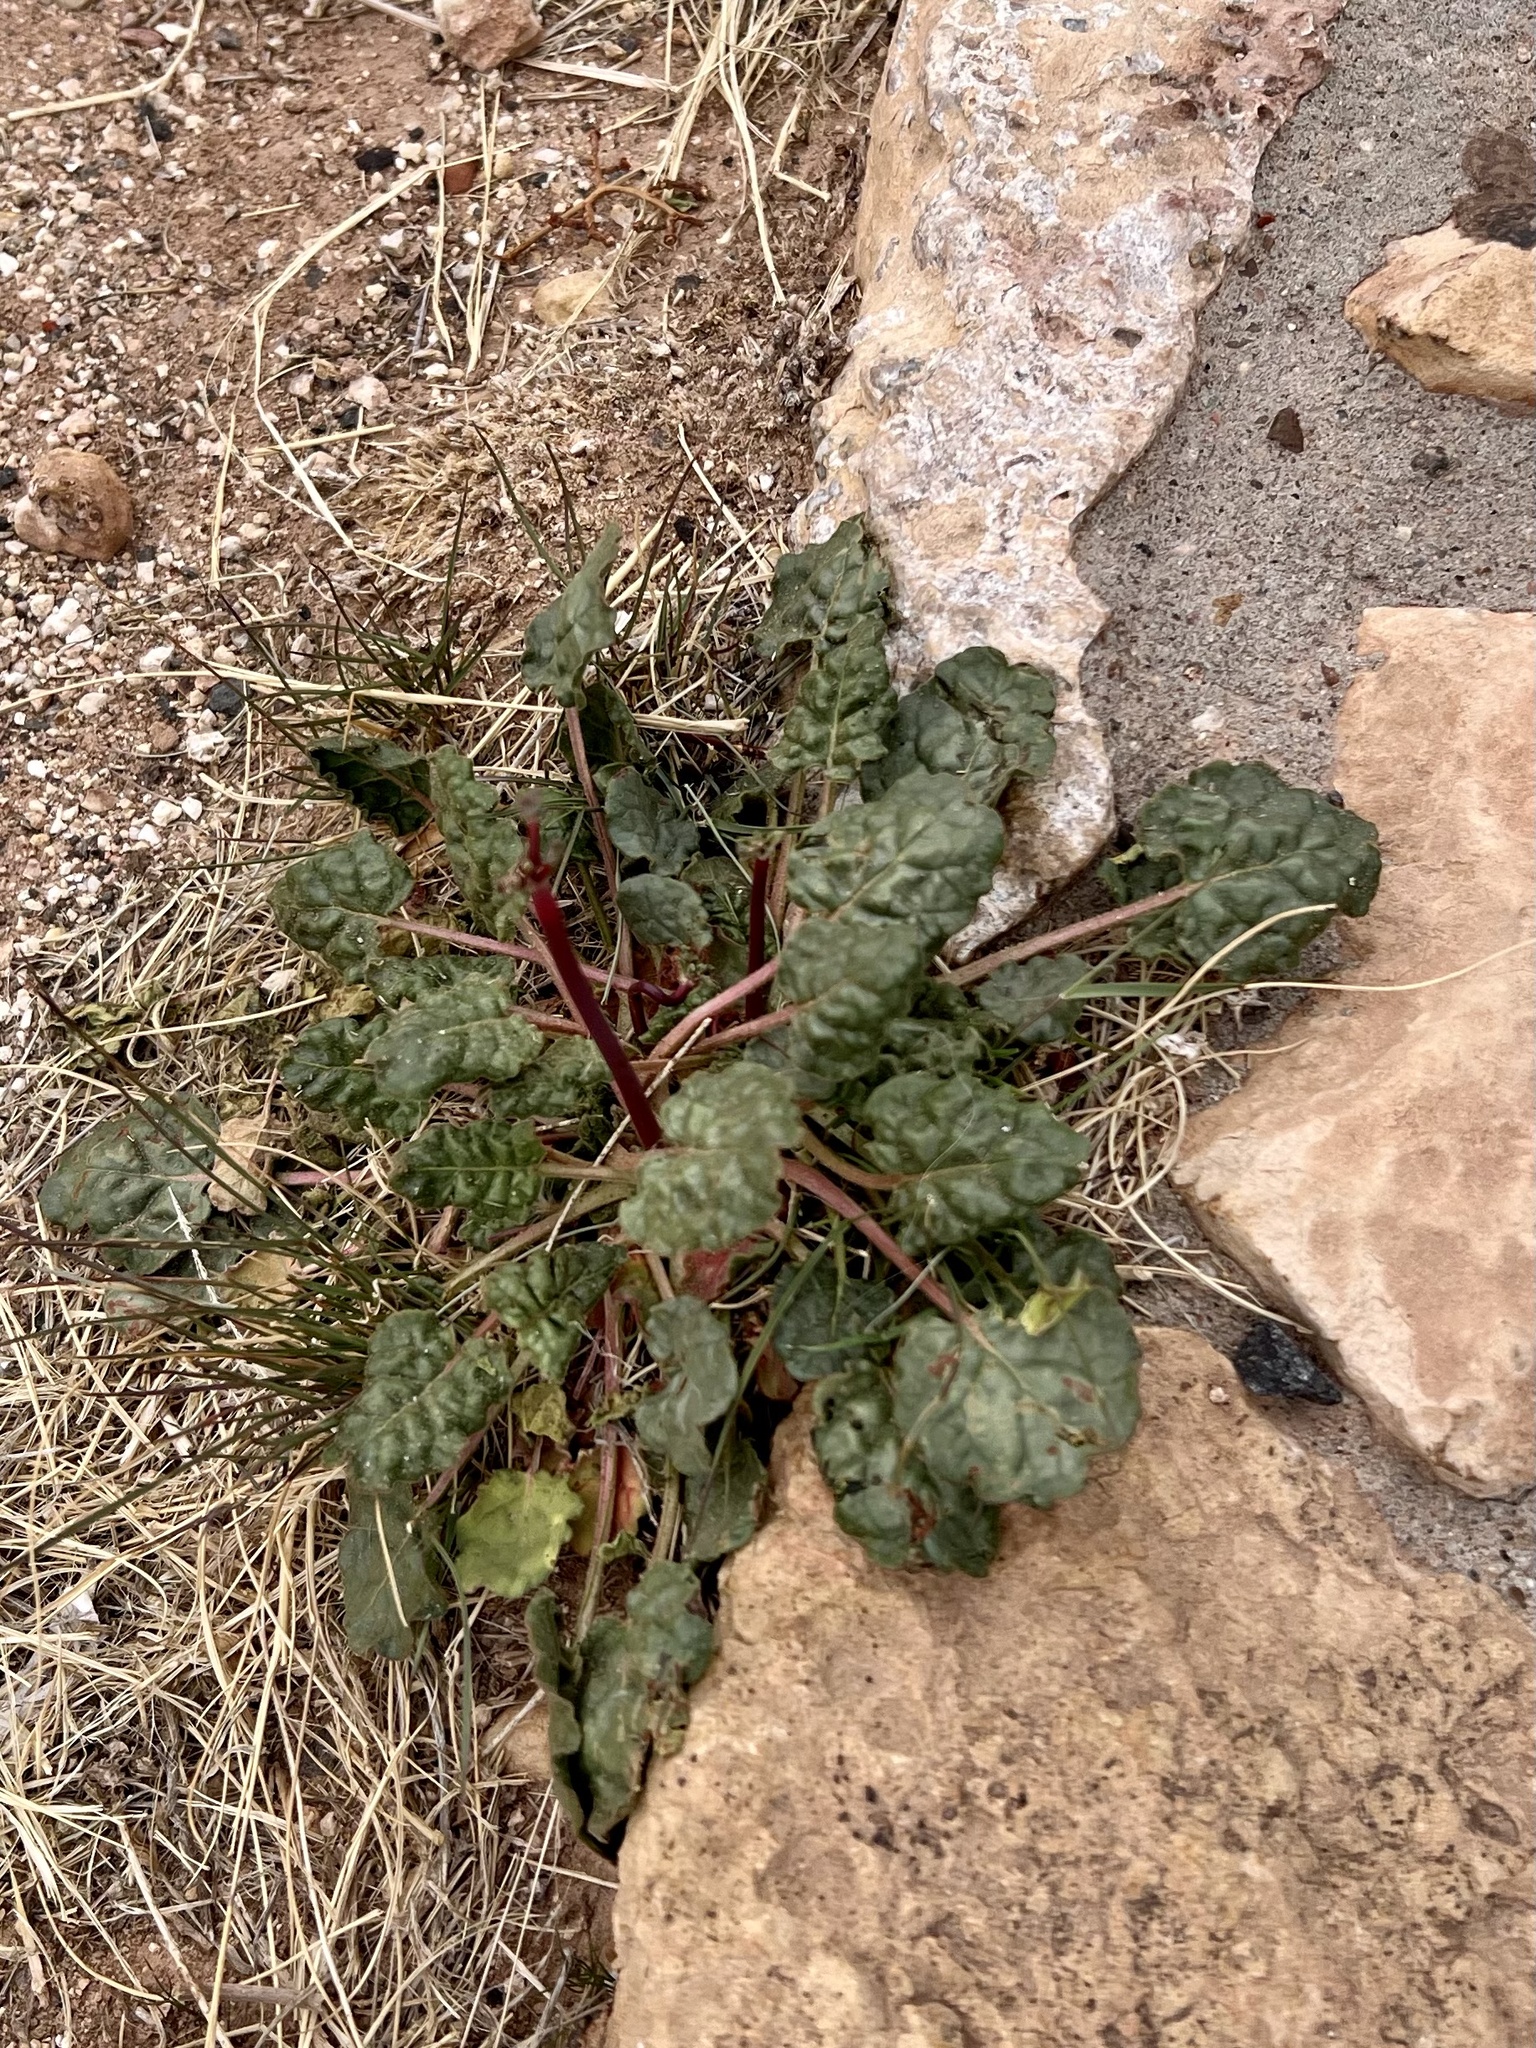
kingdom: Plantae
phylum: Tracheophyta
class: Magnoliopsida
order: Caryophyllales
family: Polygonaceae
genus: Eriogonum
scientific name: Eriogonum inflatum
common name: Desert trumpet
